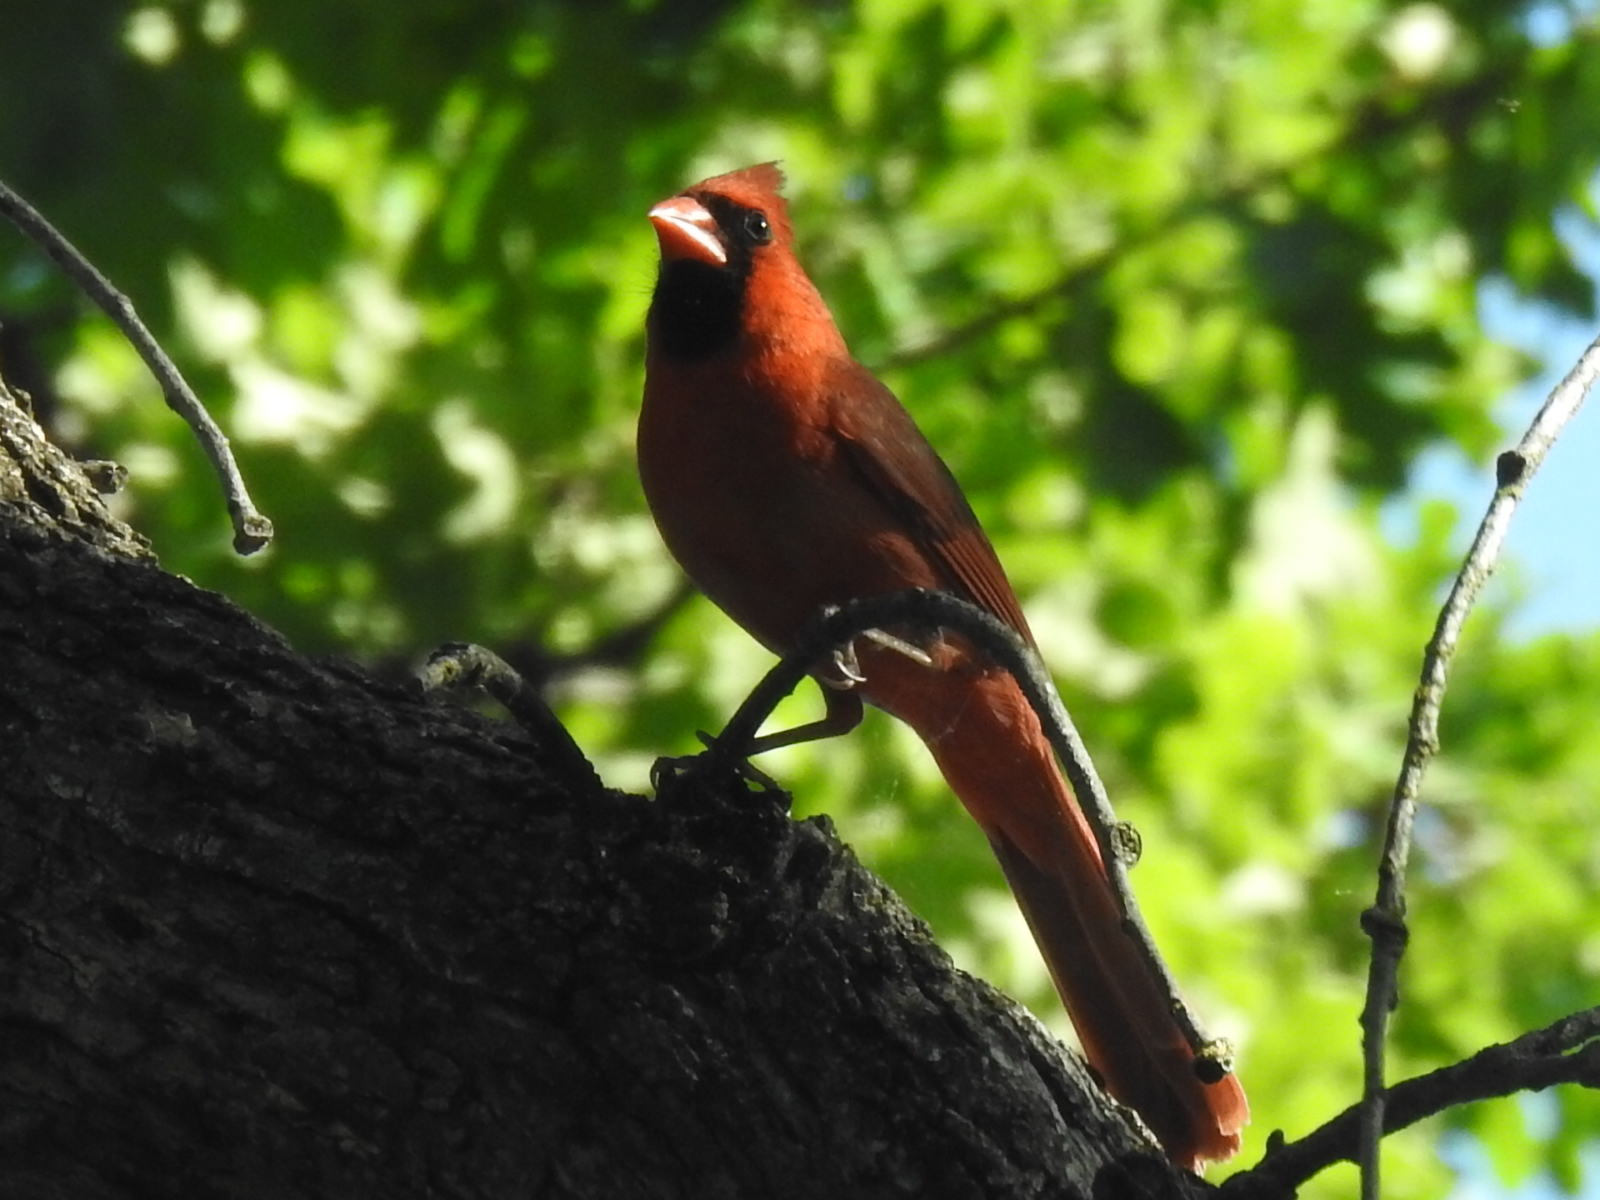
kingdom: Animalia
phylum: Chordata
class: Aves
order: Passeriformes
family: Cardinalidae
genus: Cardinalis
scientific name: Cardinalis cardinalis
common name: Northern cardinal
